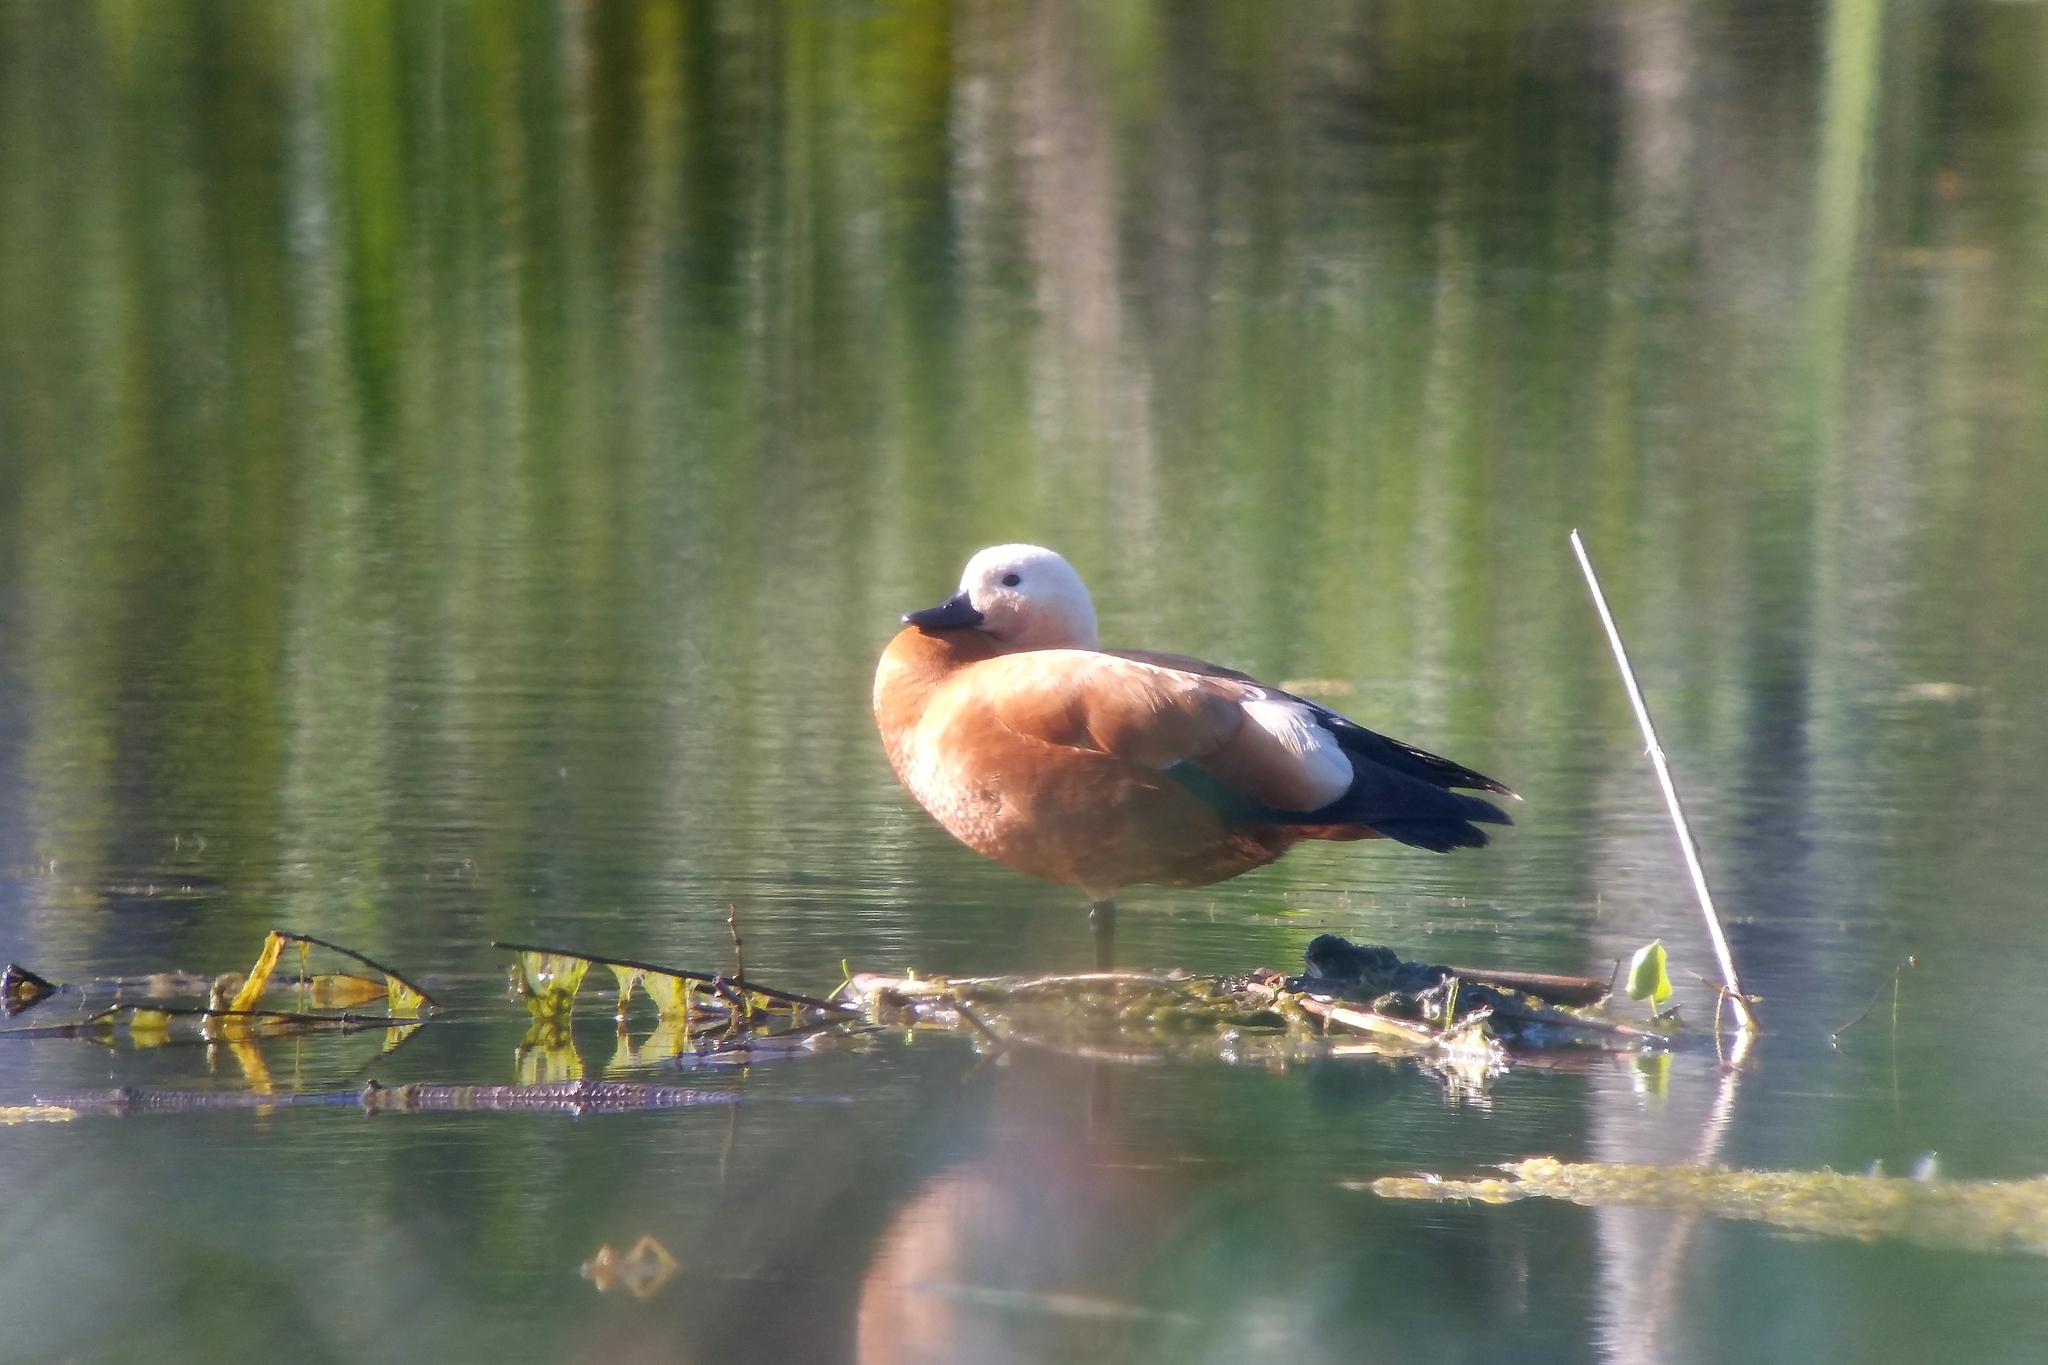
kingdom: Animalia
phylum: Chordata
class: Aves
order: Anseriformes
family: Anatidae
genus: Tadorna
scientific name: Tadorna ferruginea
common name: Ruddy shelduck
